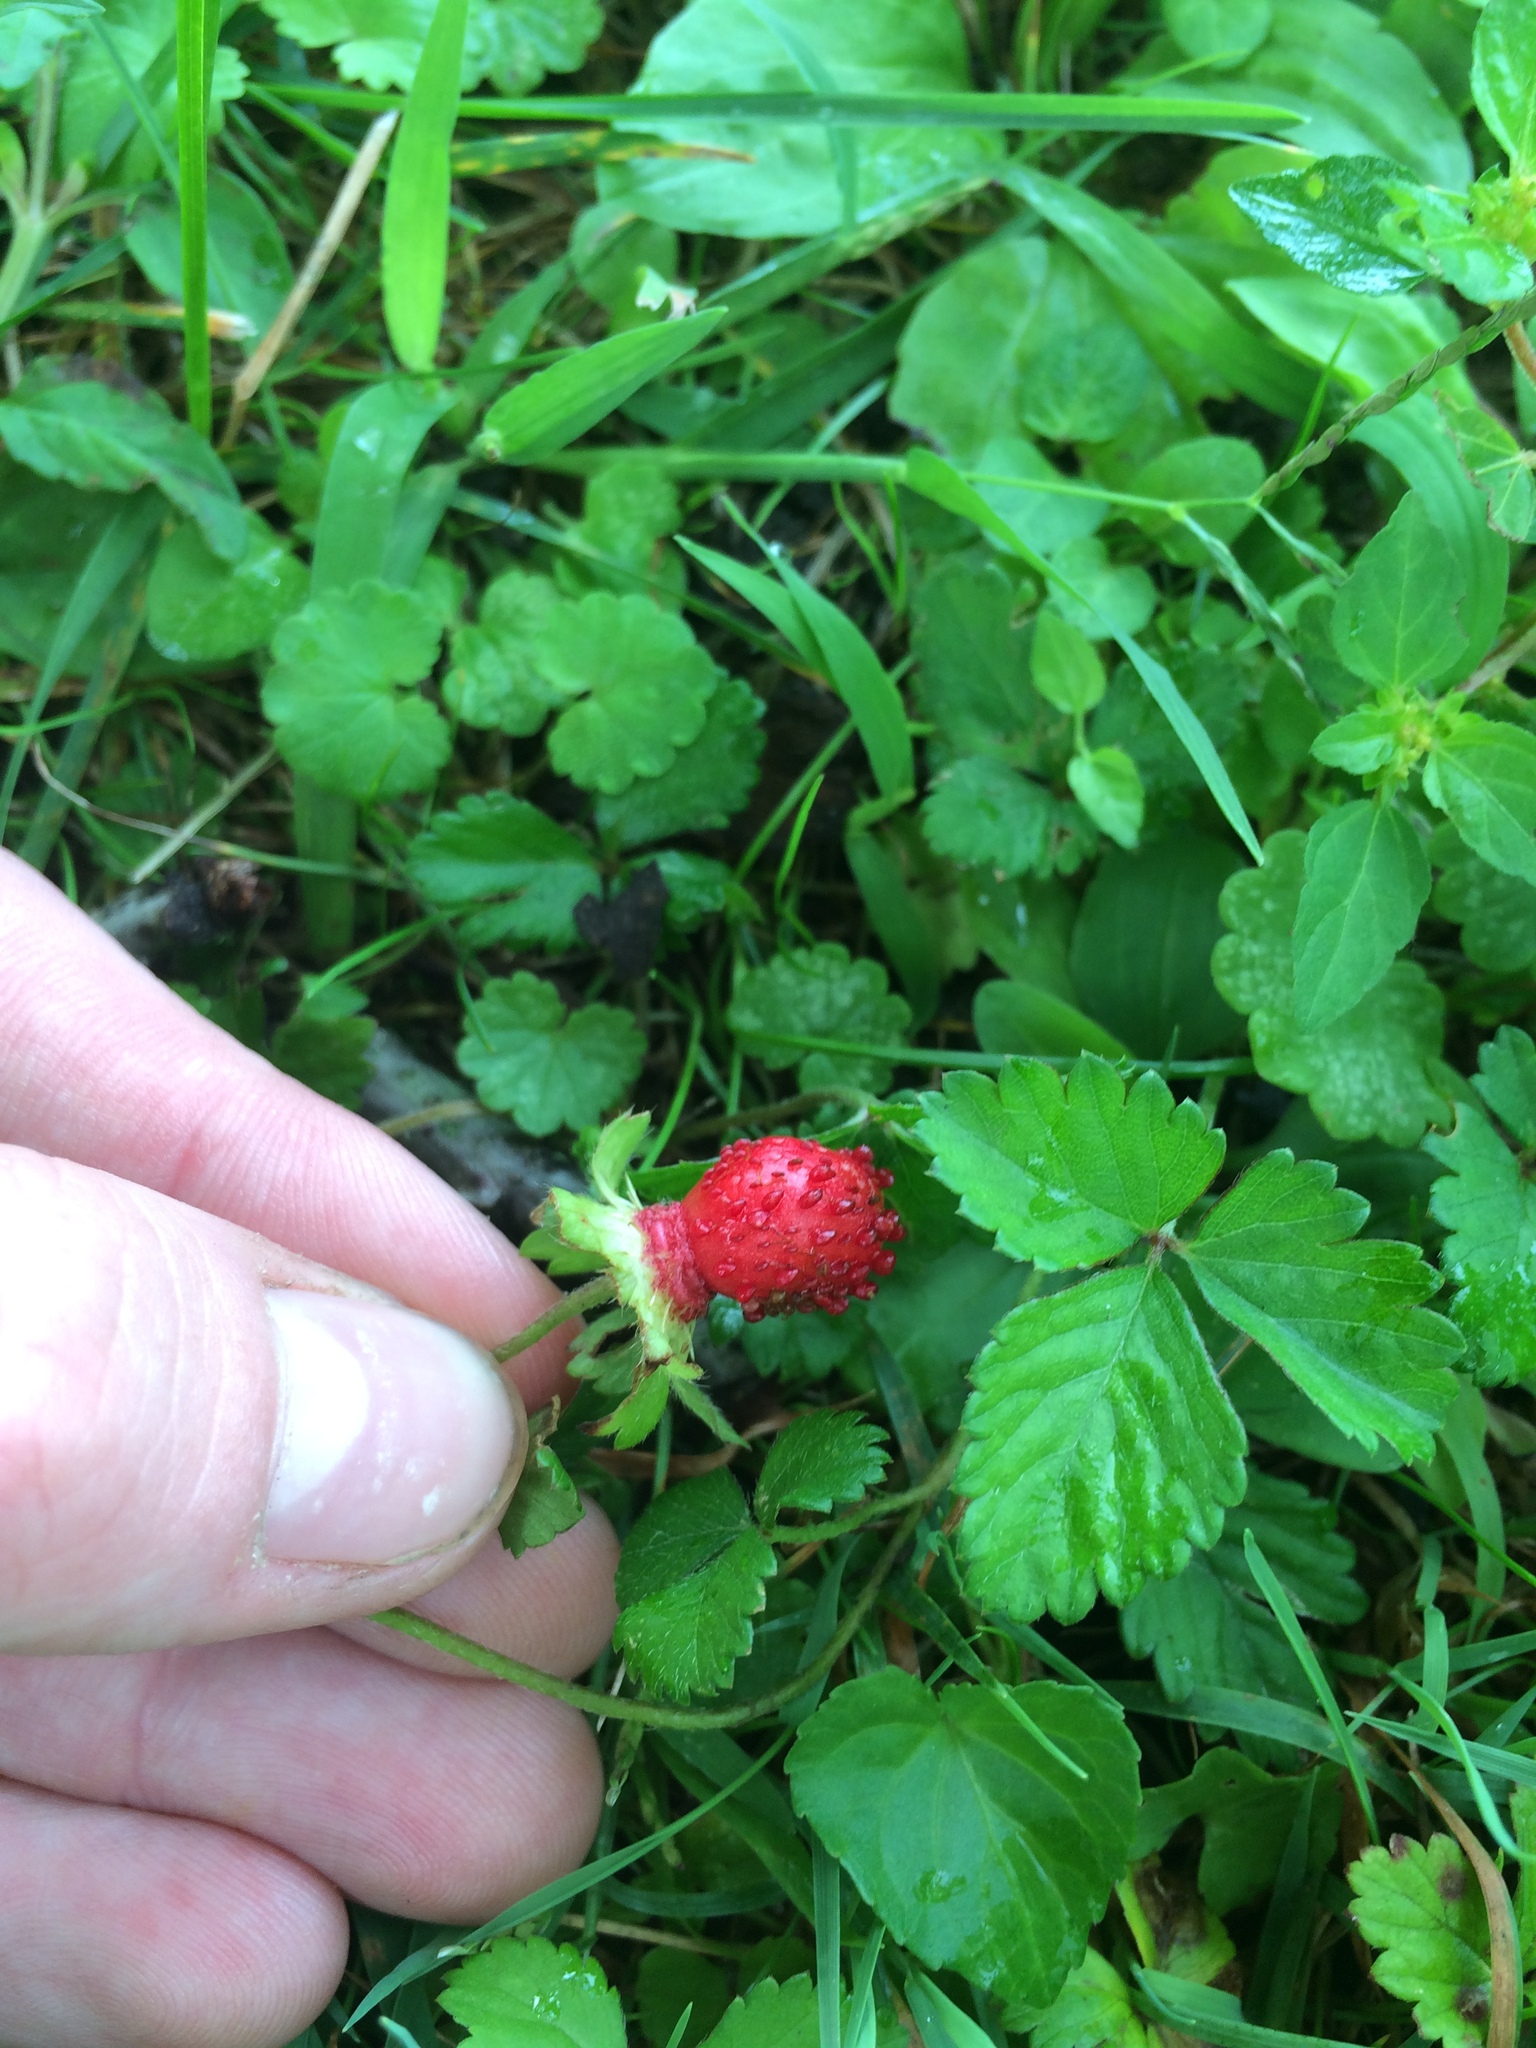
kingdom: Plantae
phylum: Tracheophyta
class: Magnoliopsida
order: Rosales
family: Rosaceae
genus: Potentilla
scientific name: Potentilla indica
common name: Yellow-flowered strawberry
